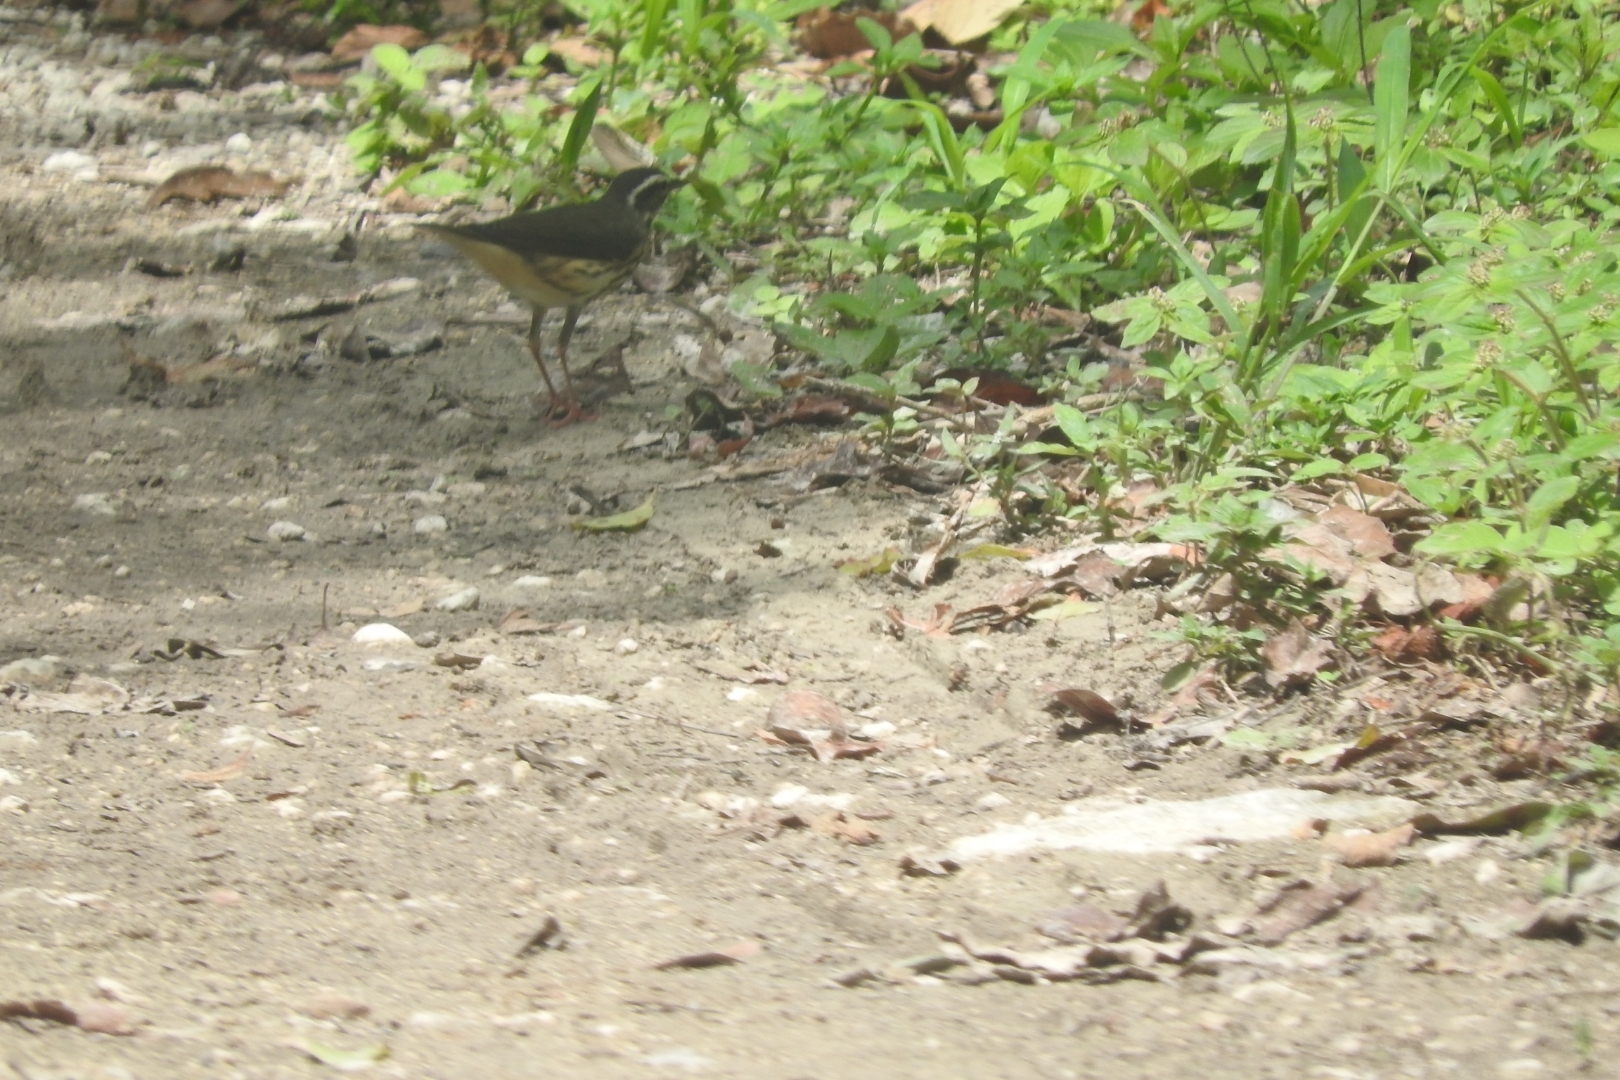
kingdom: Animalia
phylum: Chordata
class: Aves
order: Passeriformes
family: Parulidae
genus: Parkesia
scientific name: Parkesia noveboracensis
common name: Northern waterthrush
